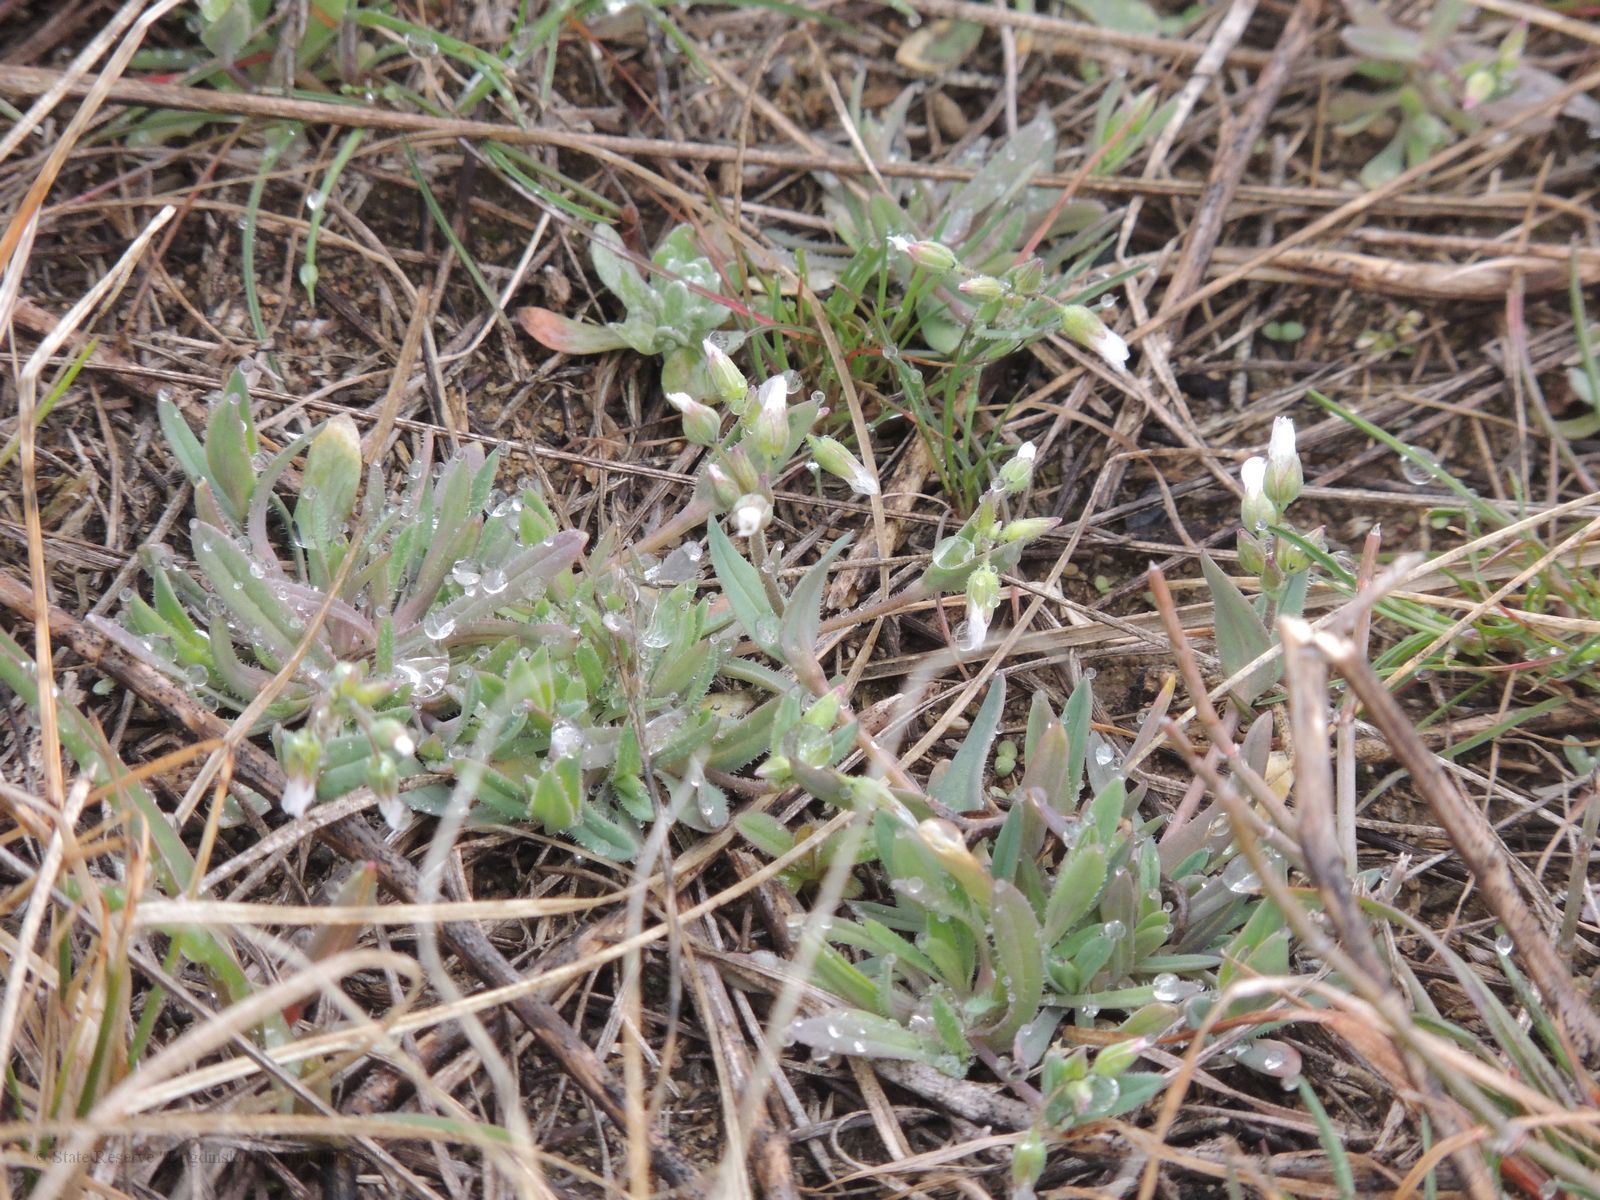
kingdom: Plantae
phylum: Tracheophyta
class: Magnoliopsida
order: Caryophyllales
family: Caryophyllaceae
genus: Holosteum
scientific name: Holosteum umbellatum
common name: Jagged chickweed
